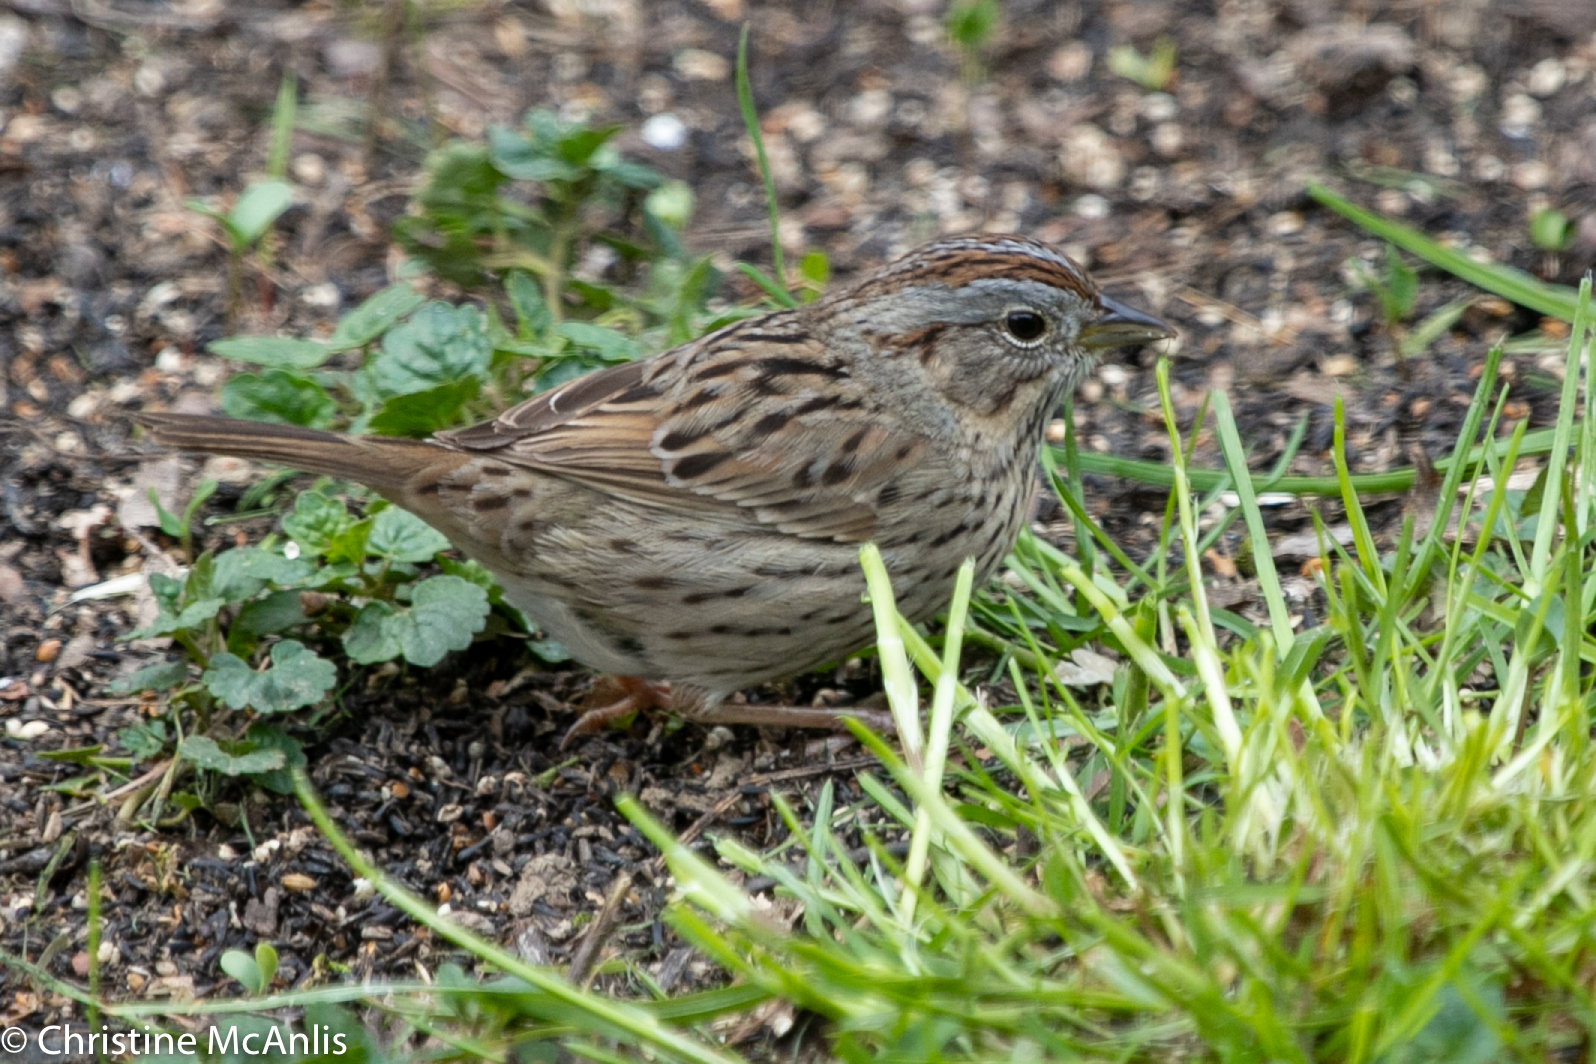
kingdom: Animalia
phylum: Chordata
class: Aves
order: Passeriformes
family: Passerellidae
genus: Melospiza
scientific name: Melospiza lincolnii
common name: Lincoln's sparrow
